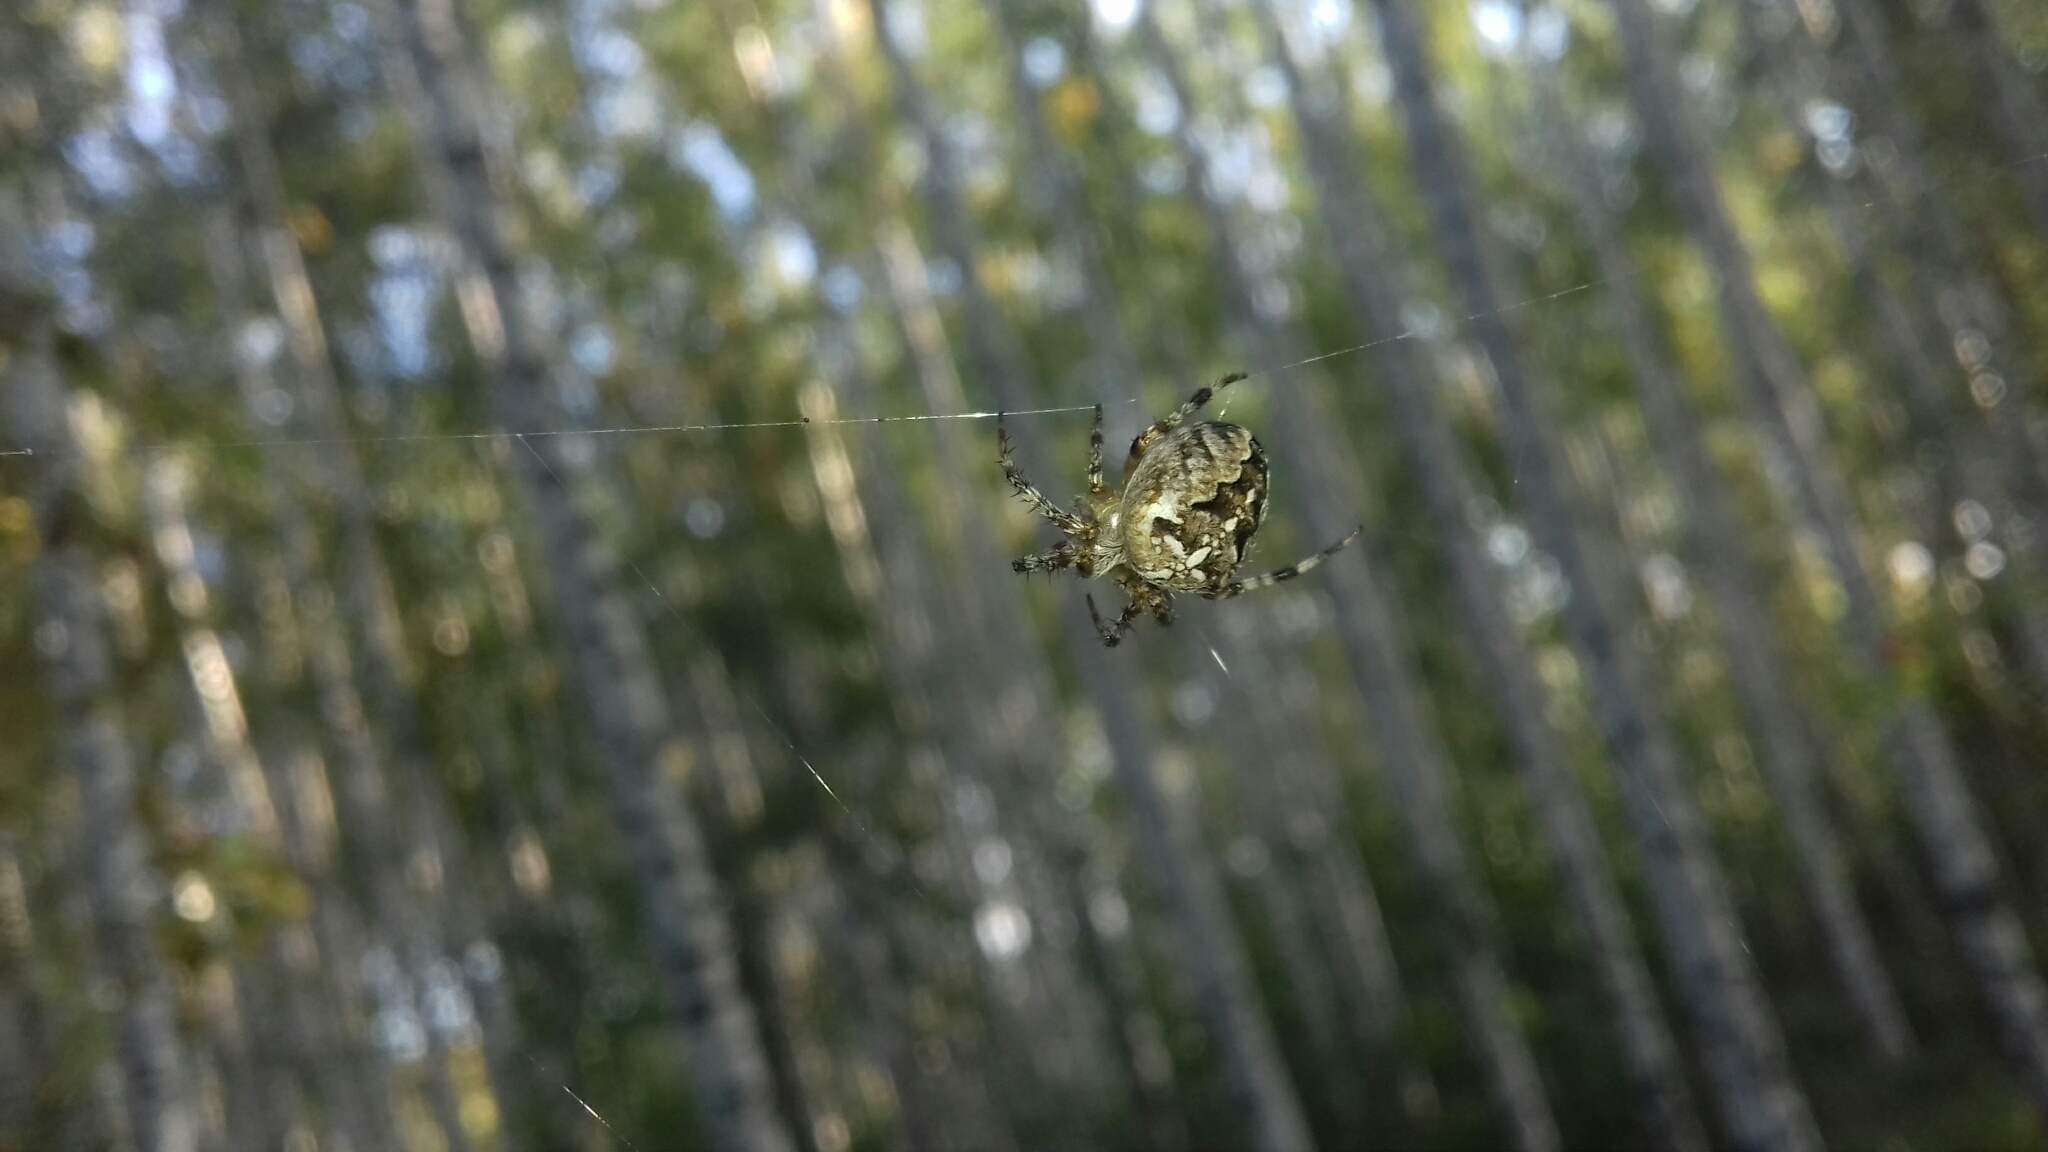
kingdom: Animalia
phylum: Arthropoda
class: Arachnida
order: Araneae
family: Araneidae
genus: Araneus
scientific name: Araneus diadematus
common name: Cross orbweaver
